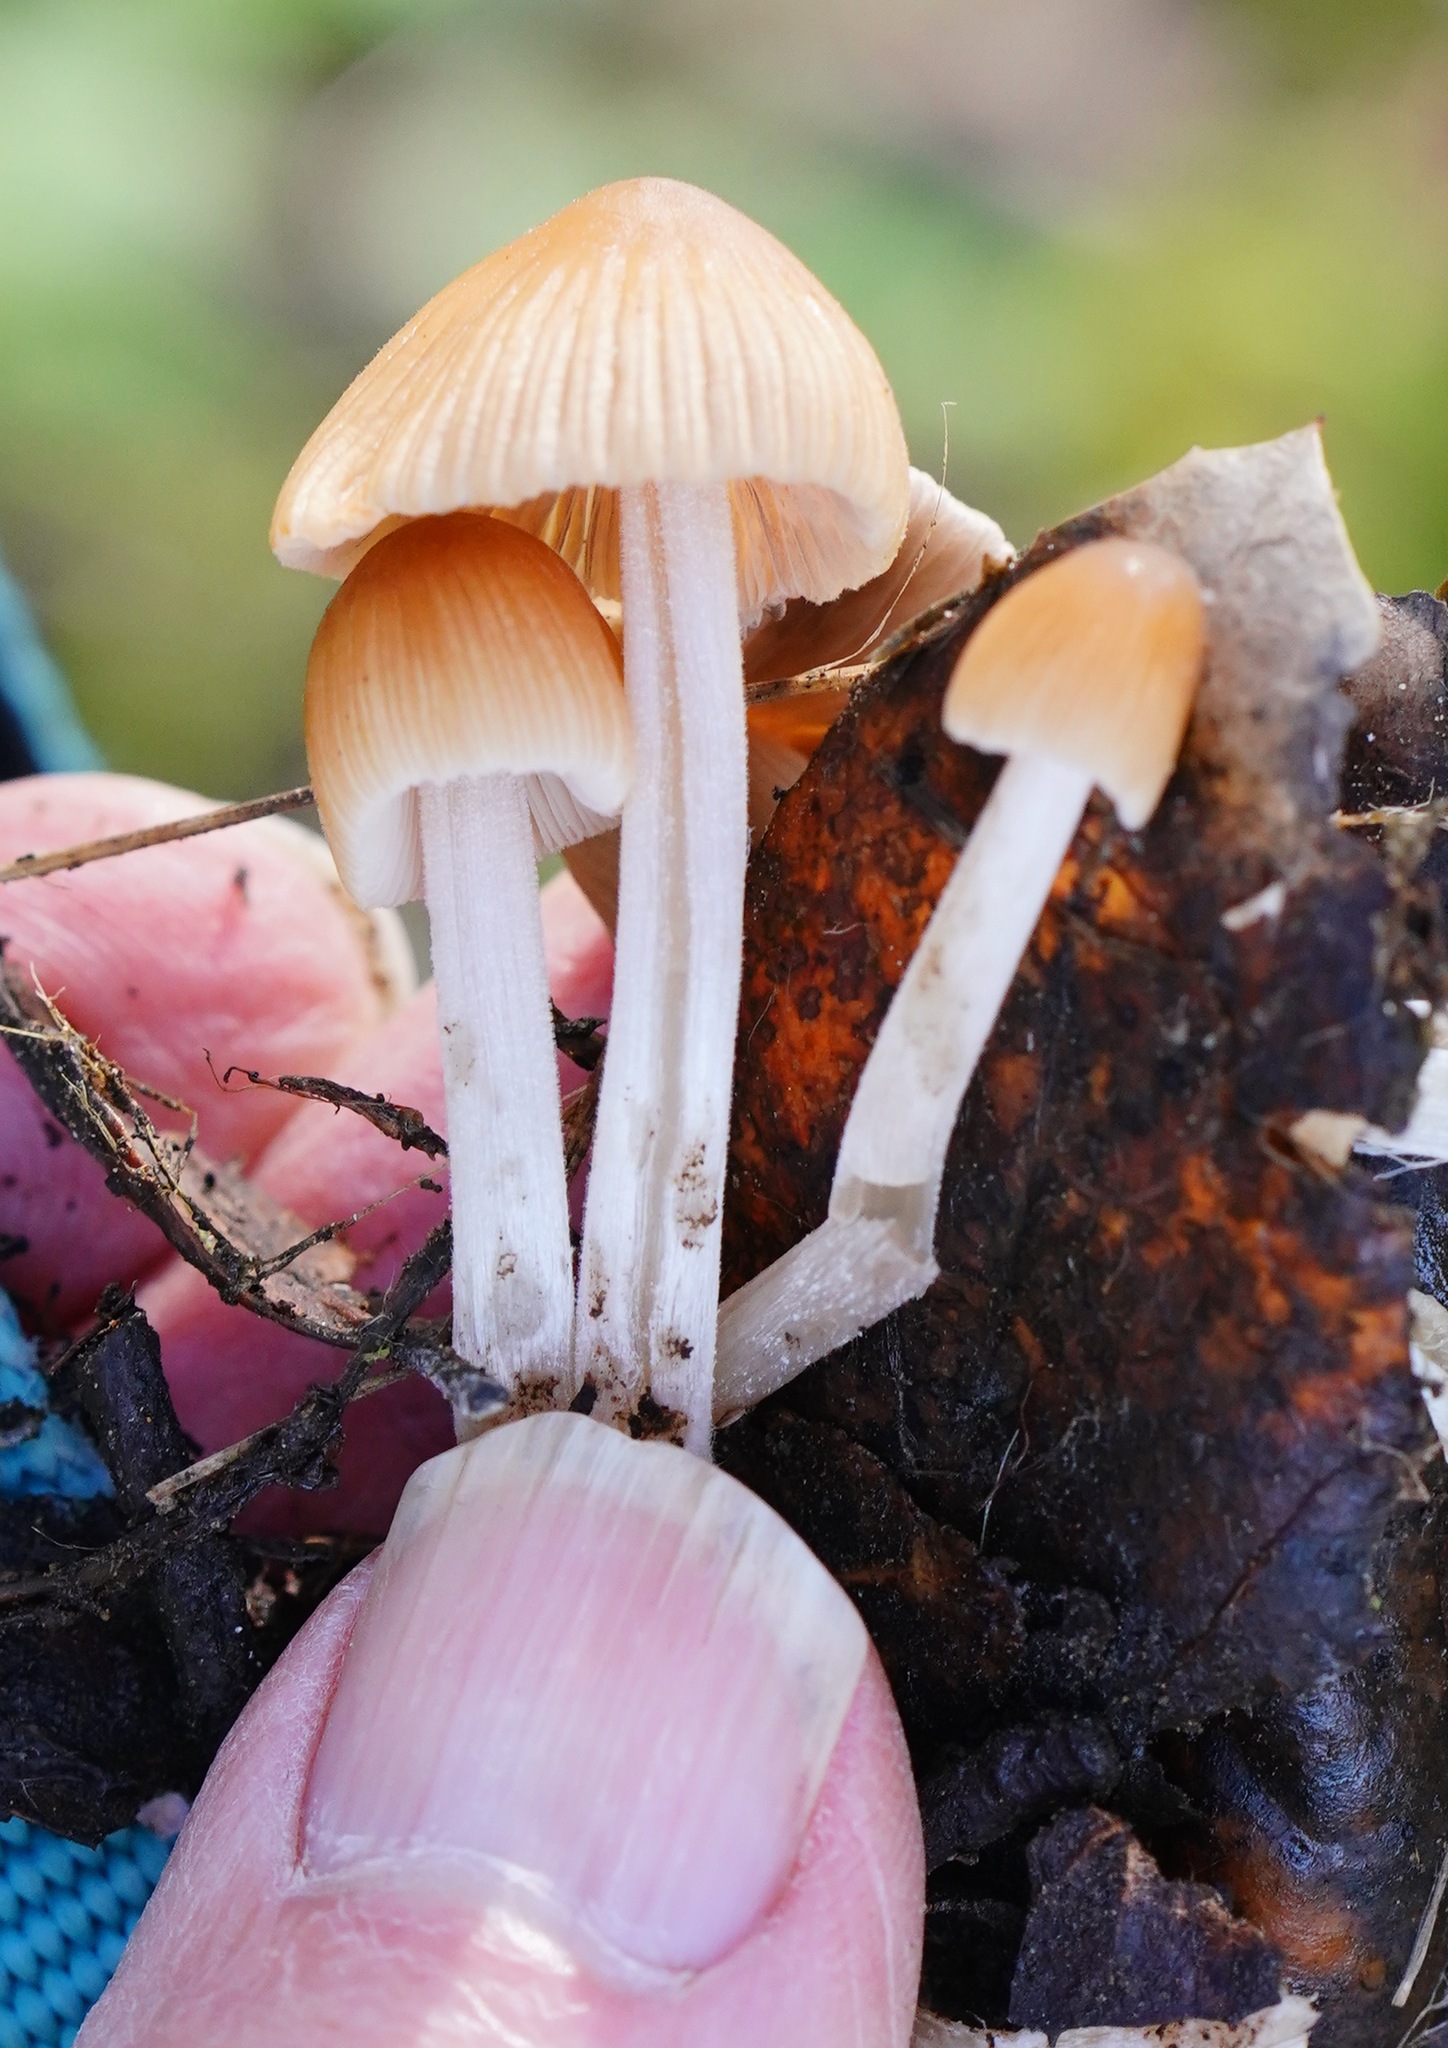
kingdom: Fungi
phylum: Basidiomycota
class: Agaricomycetes
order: Agaricales
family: Psathyrellaceae
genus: Tulosesus
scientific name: Tulosesus impatiens
